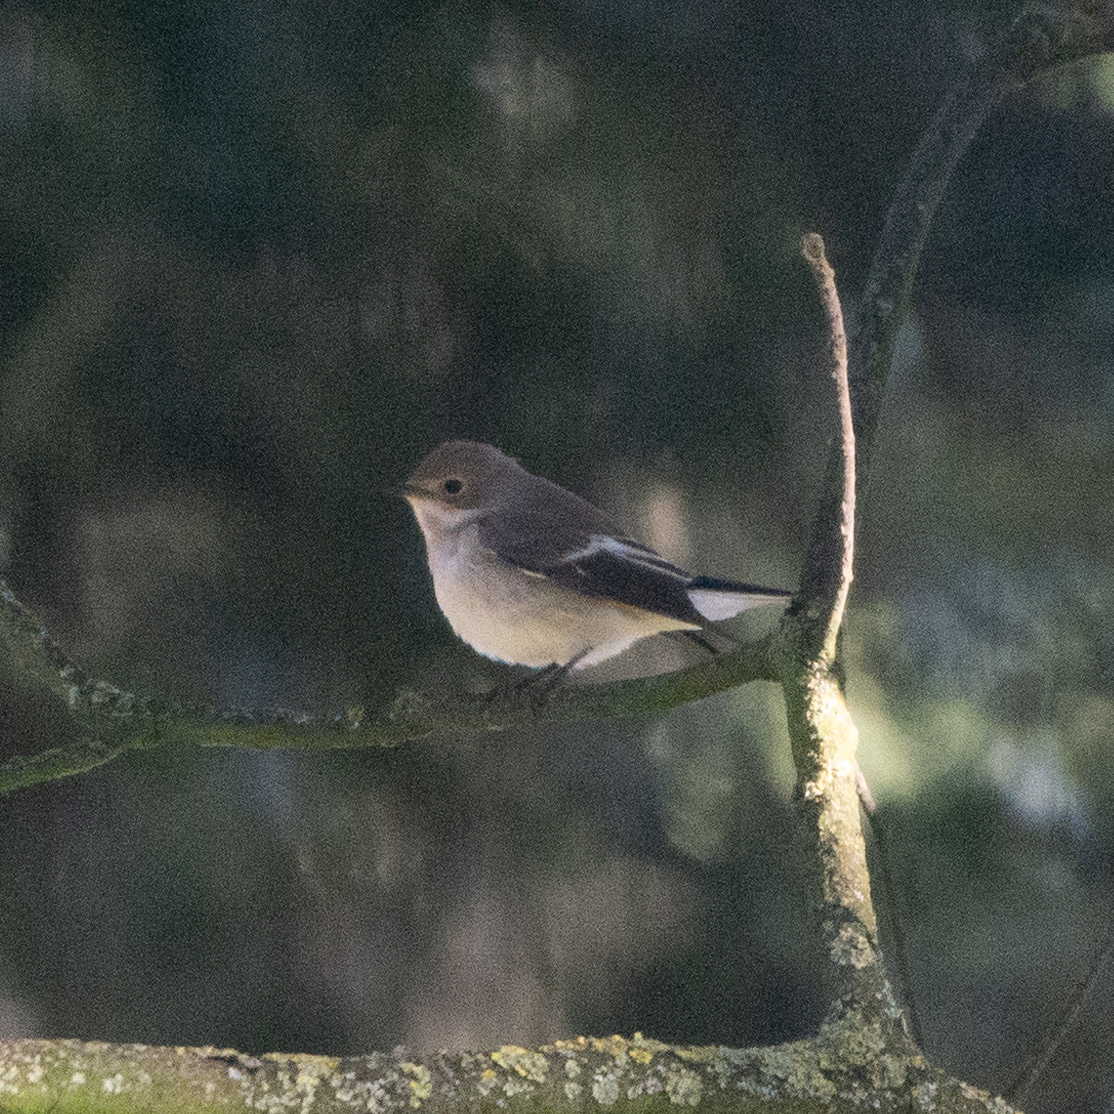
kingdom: Animalia
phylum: Chordata
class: Aves
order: Passeriformes
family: Muscicapidae
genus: Ficedula
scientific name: Ficedula hypoleuca
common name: European pied flycatcher
